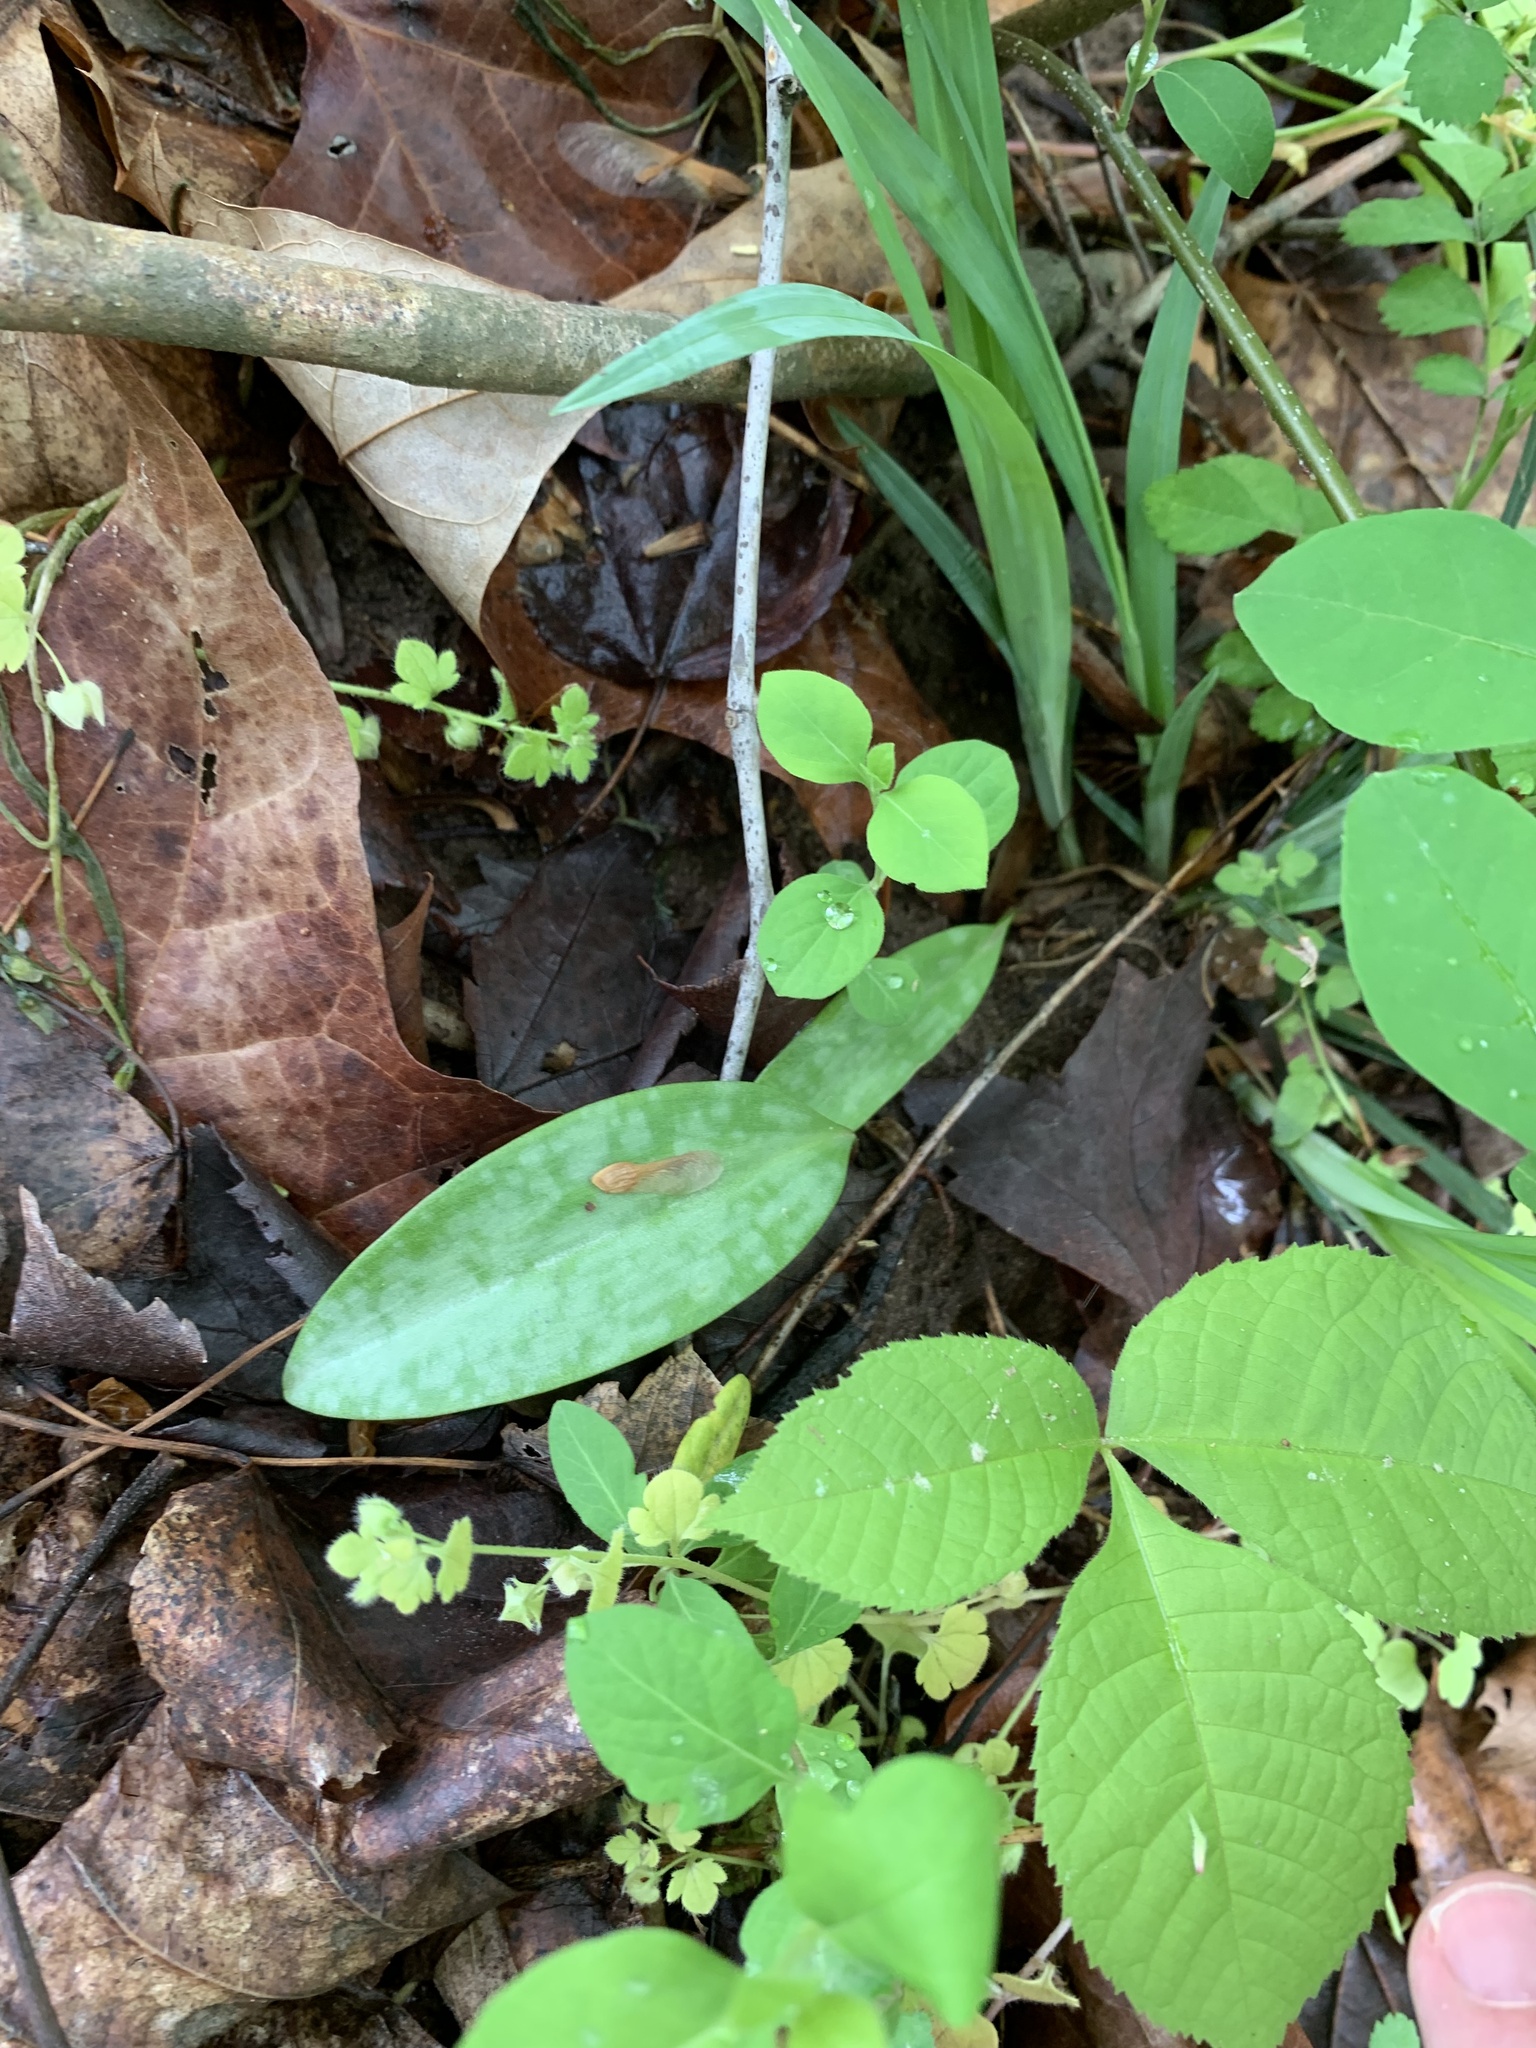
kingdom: Plantae
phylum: Tracheophyta
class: Liliopsida
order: Liliales
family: Liliaceae
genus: Erythronium
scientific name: Erythronium americanum
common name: Yellow adder's-tongue
